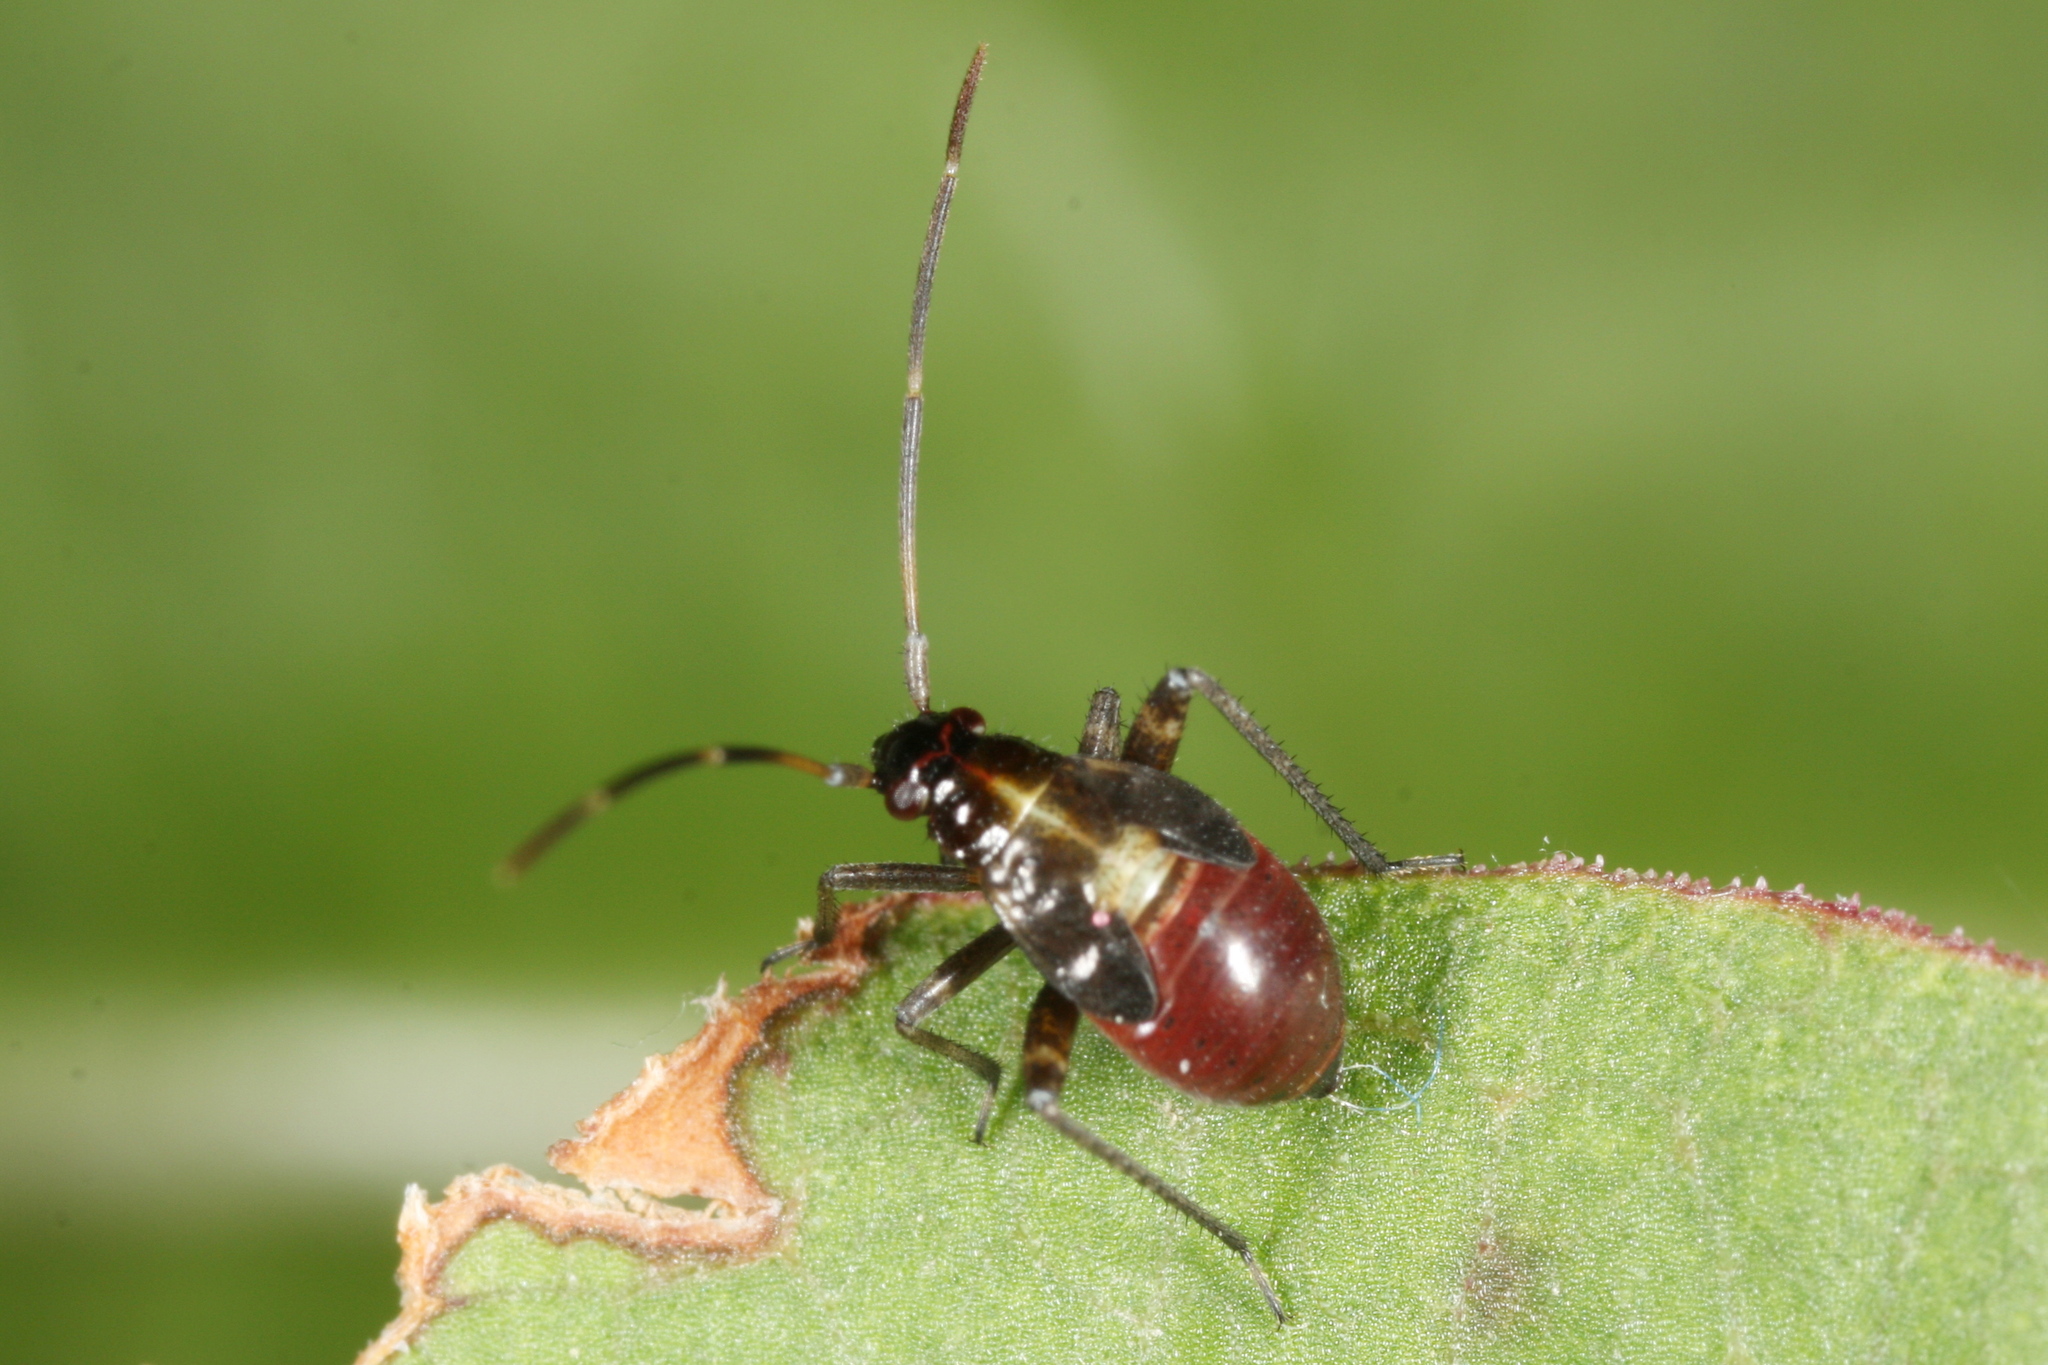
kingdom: Animalia
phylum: Arthropoda
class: Insecta
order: Hemiptera
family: Miridae
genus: Adelphocoris
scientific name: Adelphocoris seticornis
